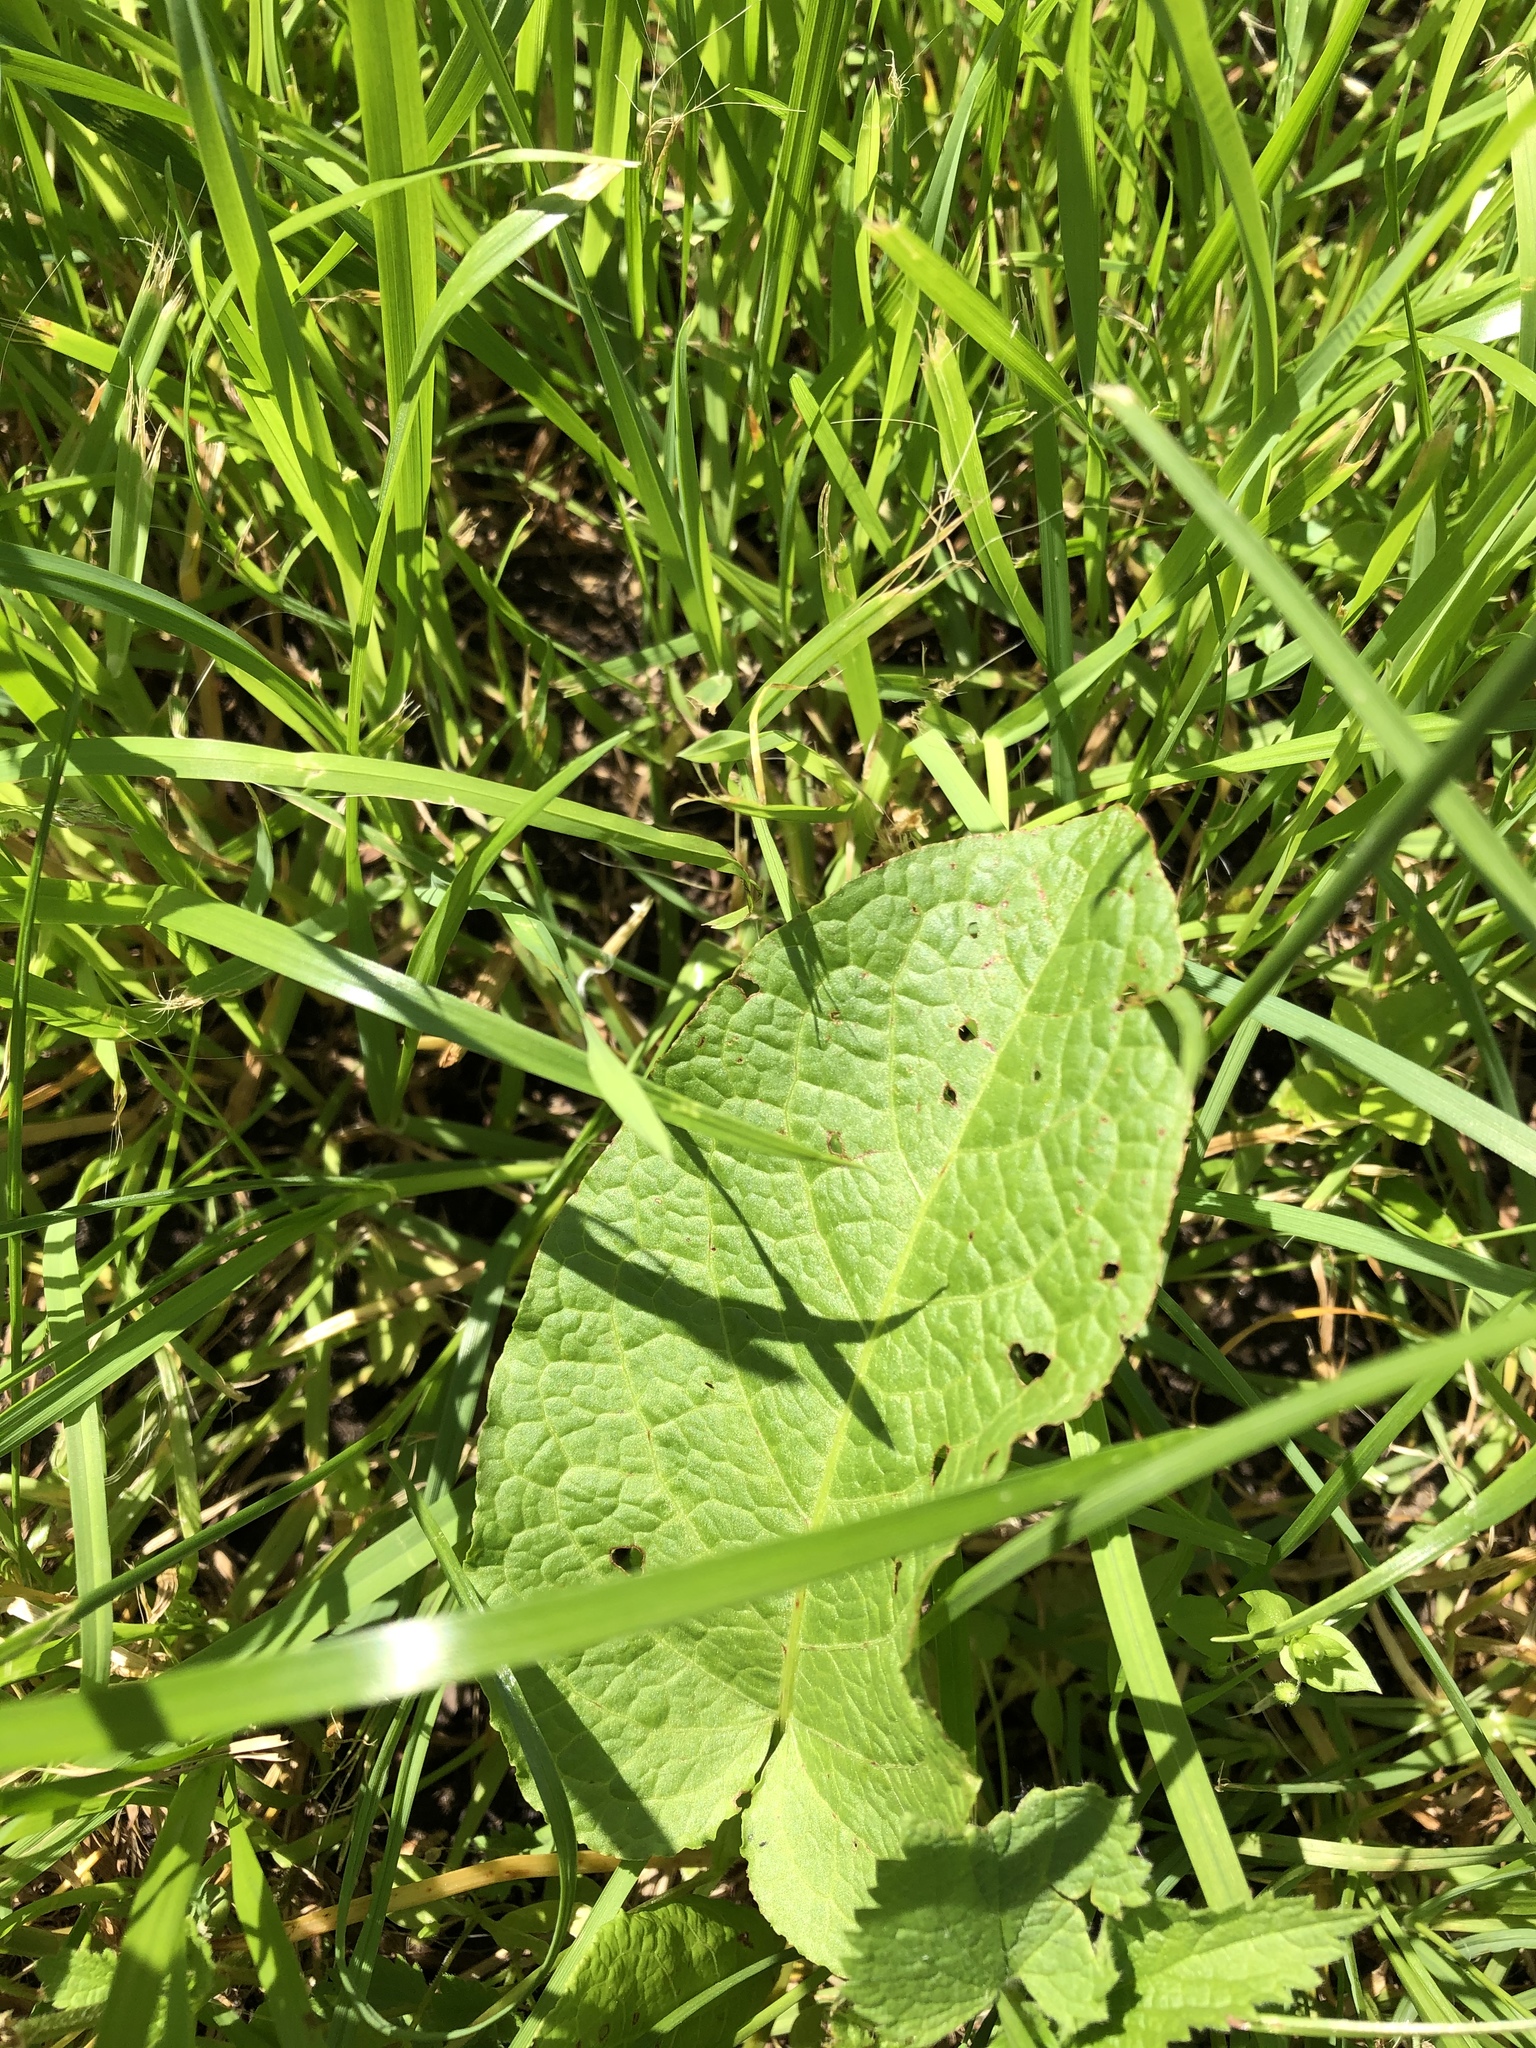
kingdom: Plantae
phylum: Tracheophyta
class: Magnoliopsida
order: Caryophyllales
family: Polygonaceae
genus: Rumex
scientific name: Rumex obtusifolius
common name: Bitter dock
